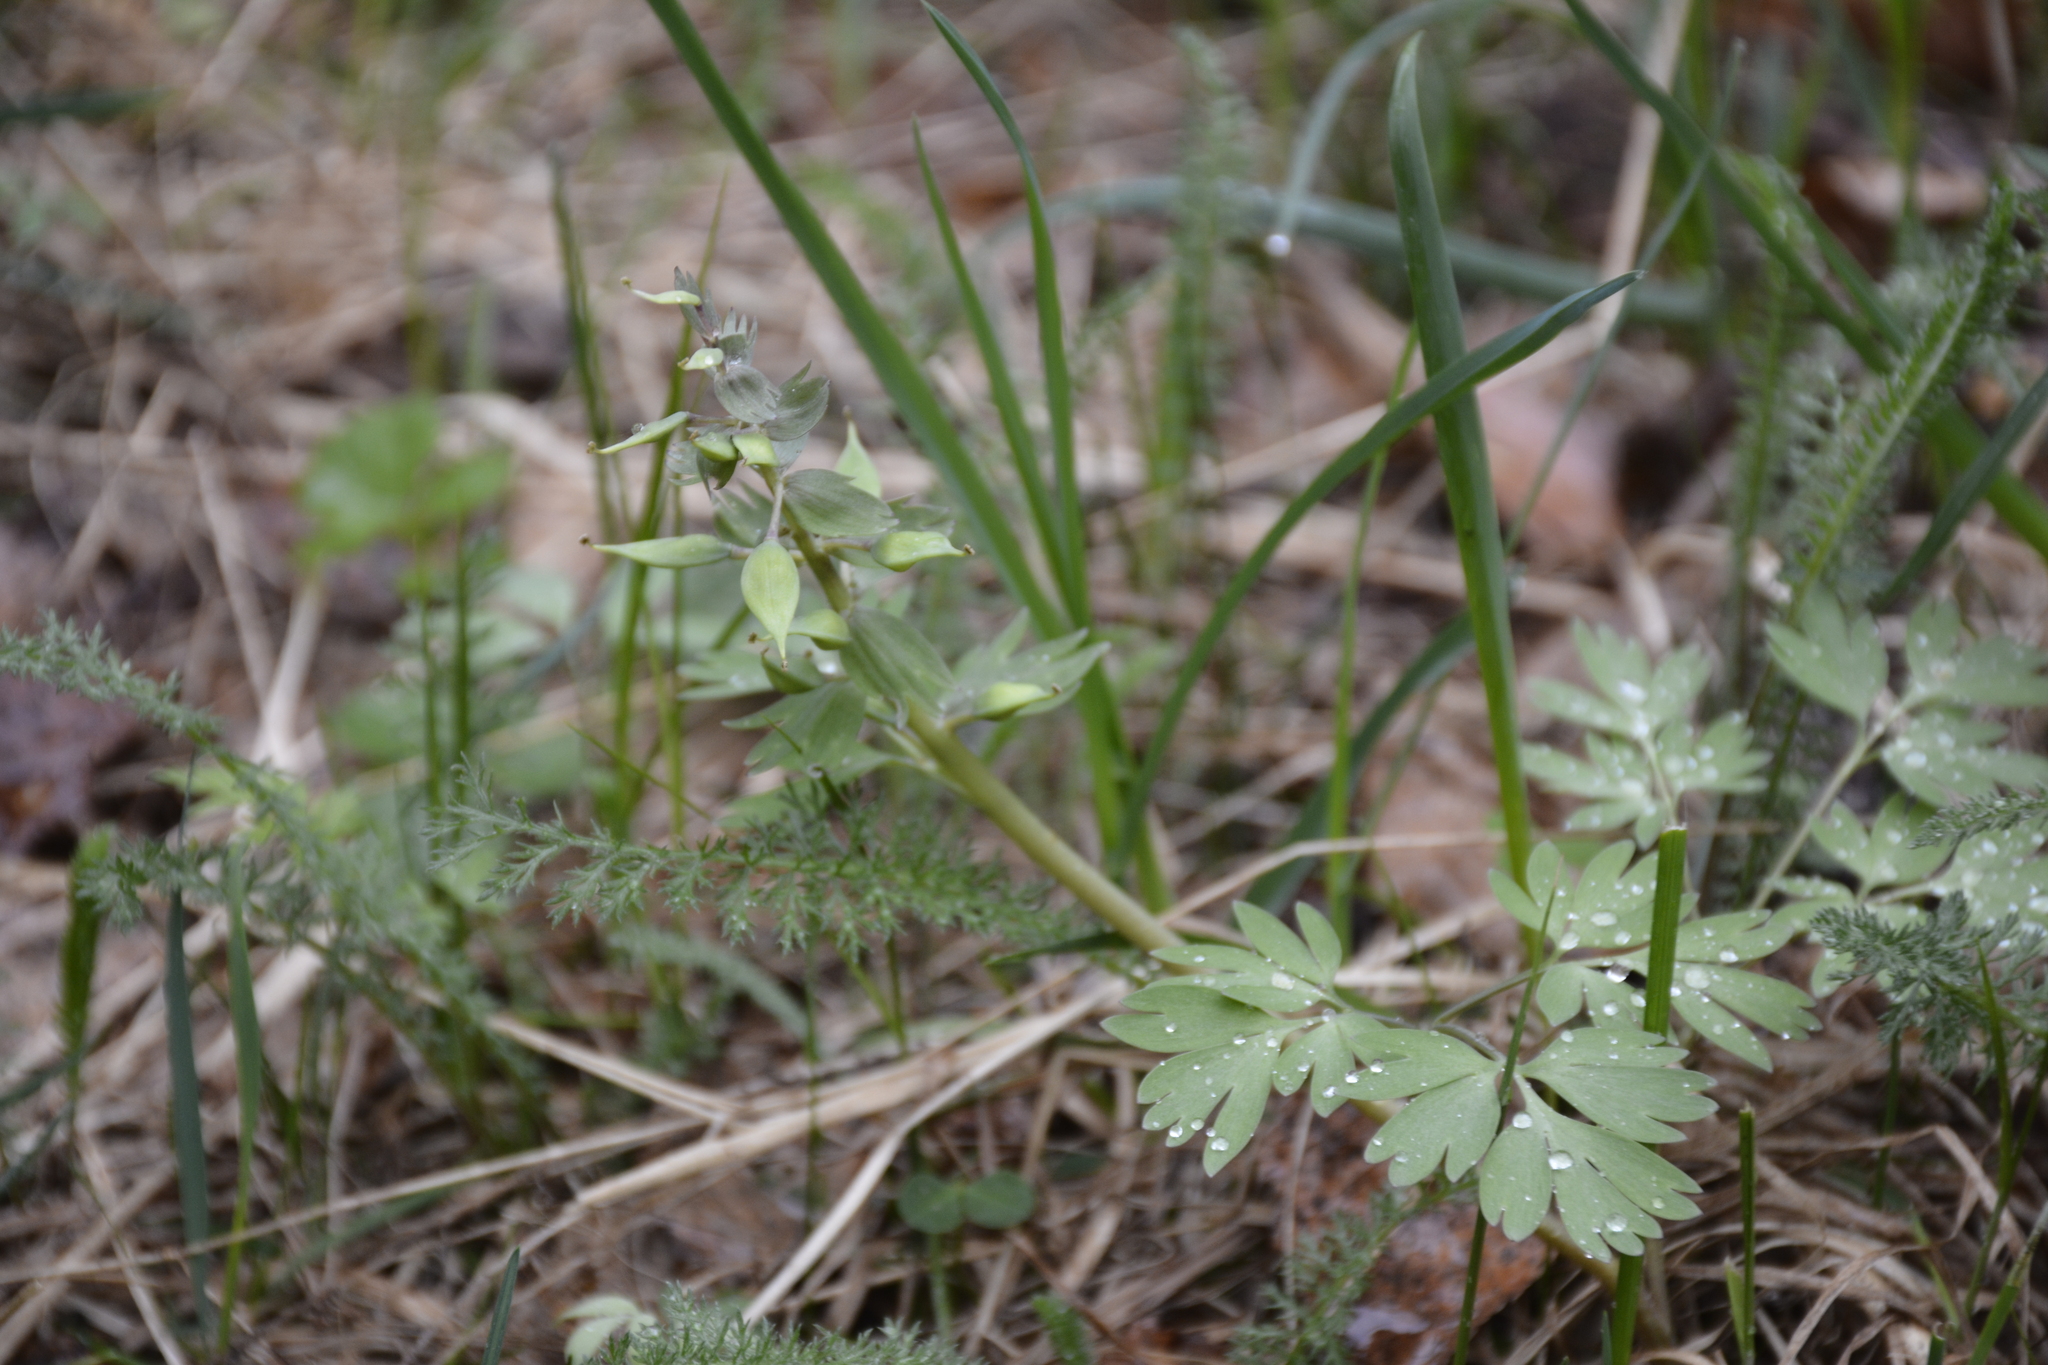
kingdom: Plantae
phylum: Tracheophyta
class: Magnoliopsida
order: Ranunculales
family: Papaveraceae
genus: Corydalis
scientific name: Corydalis solida
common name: Bird-in-a-bush
